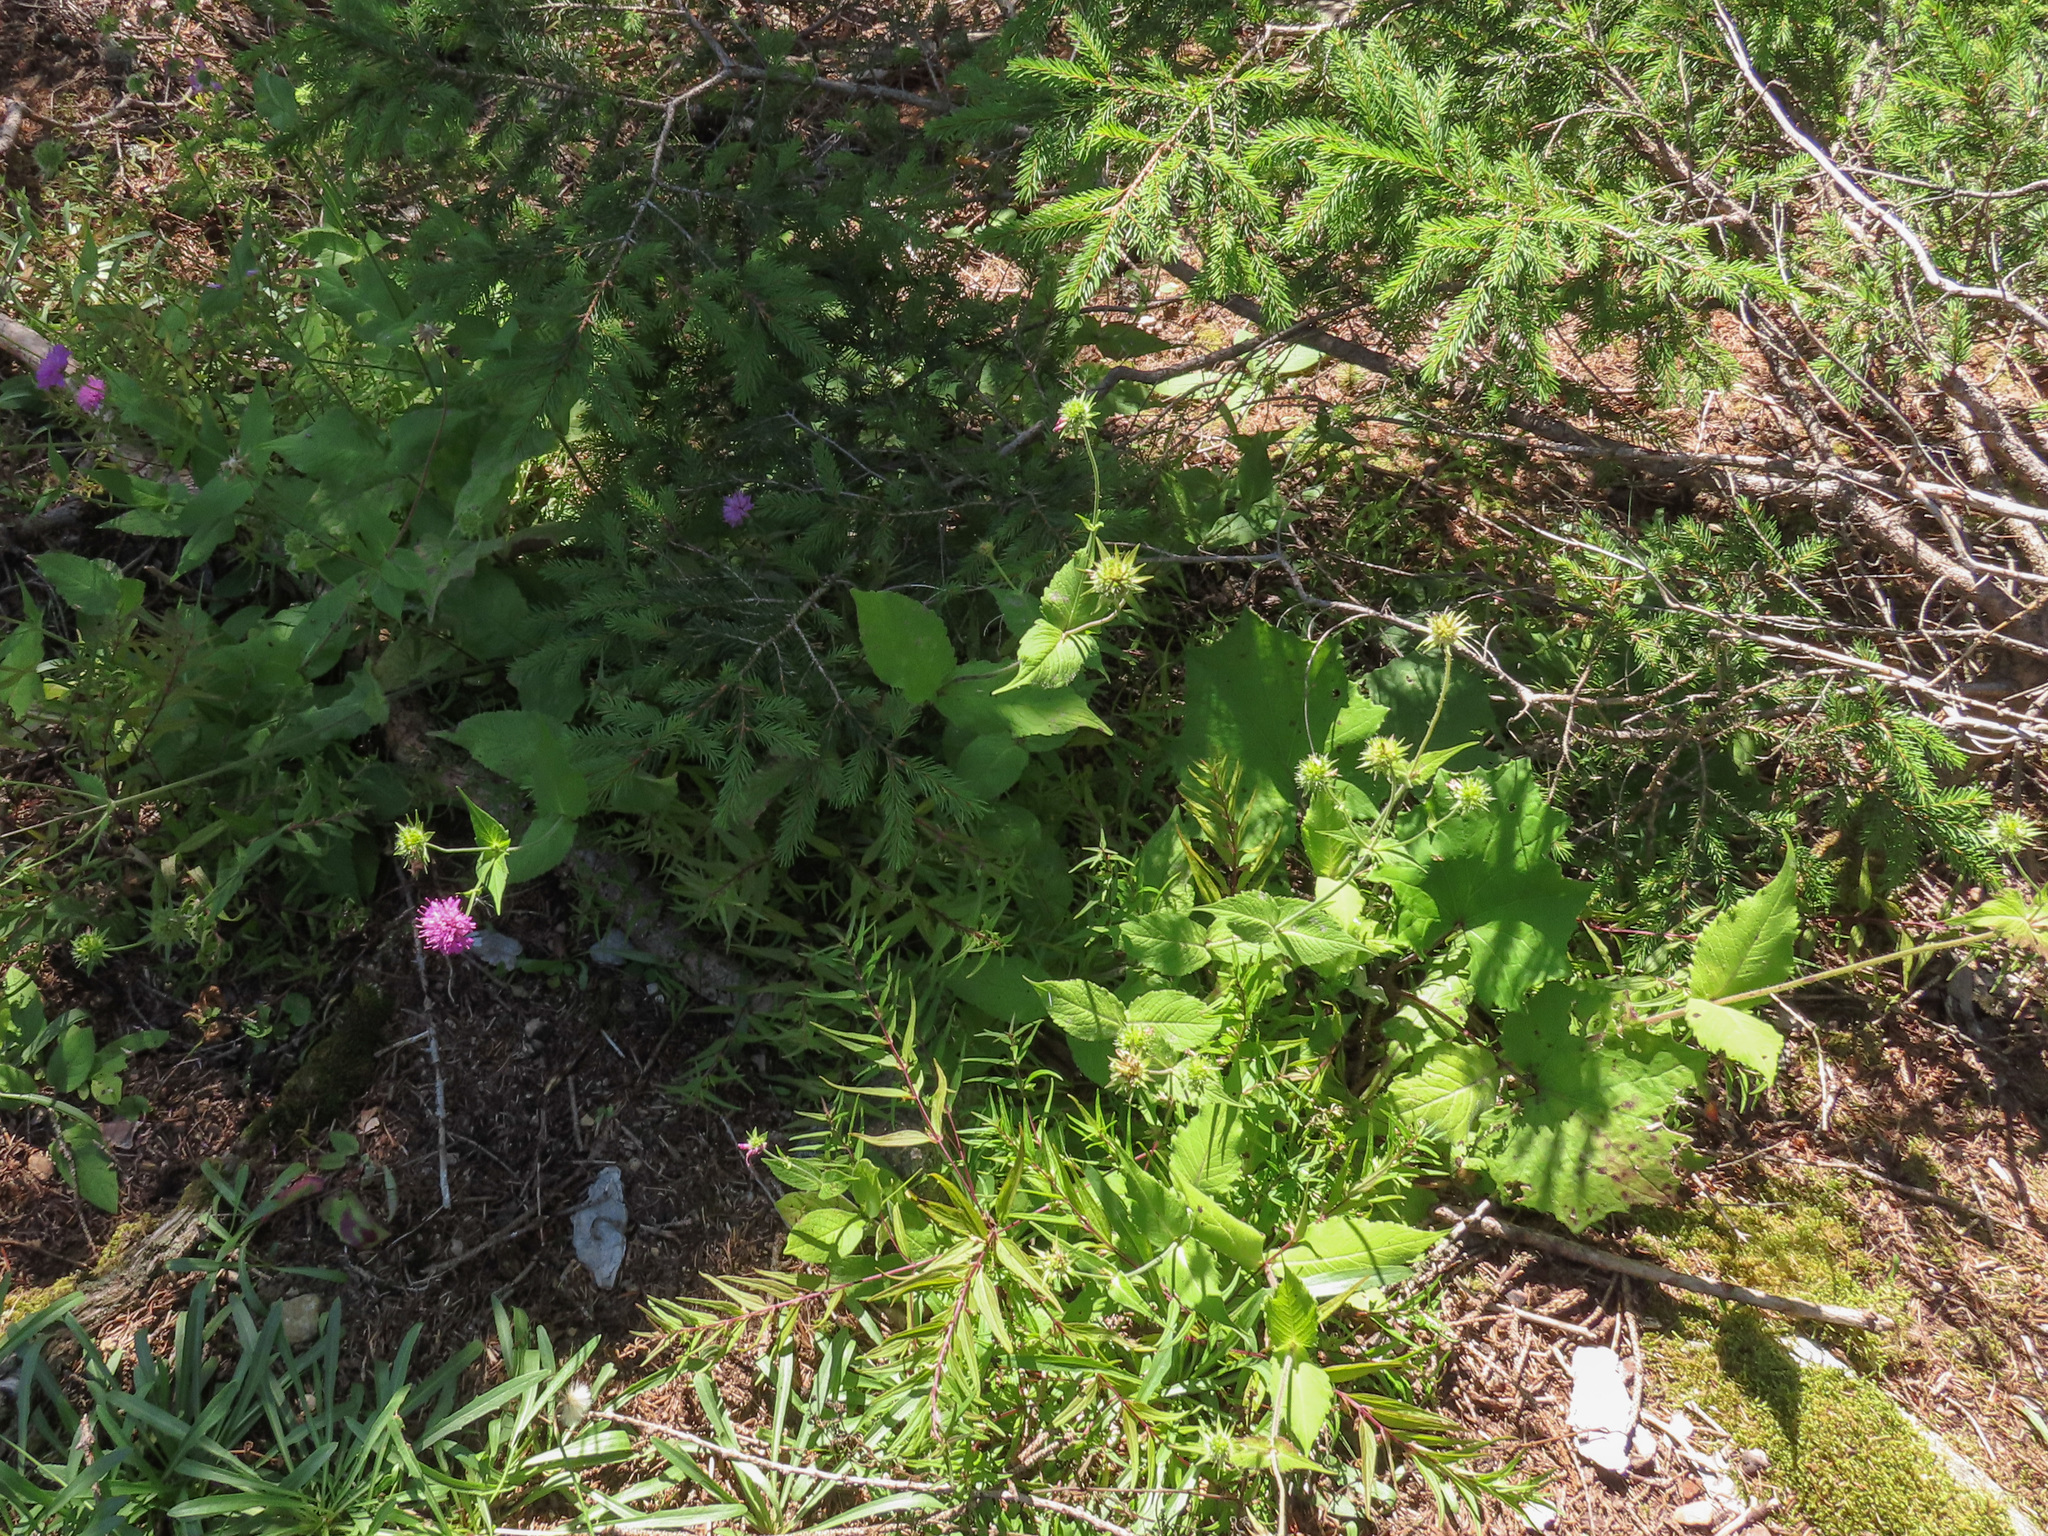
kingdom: Plantae
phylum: Tracheophyta
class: Magnoliopsida
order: Dipsacales
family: Caprifoliaceae
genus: Knautia
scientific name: Knautia drymeia
